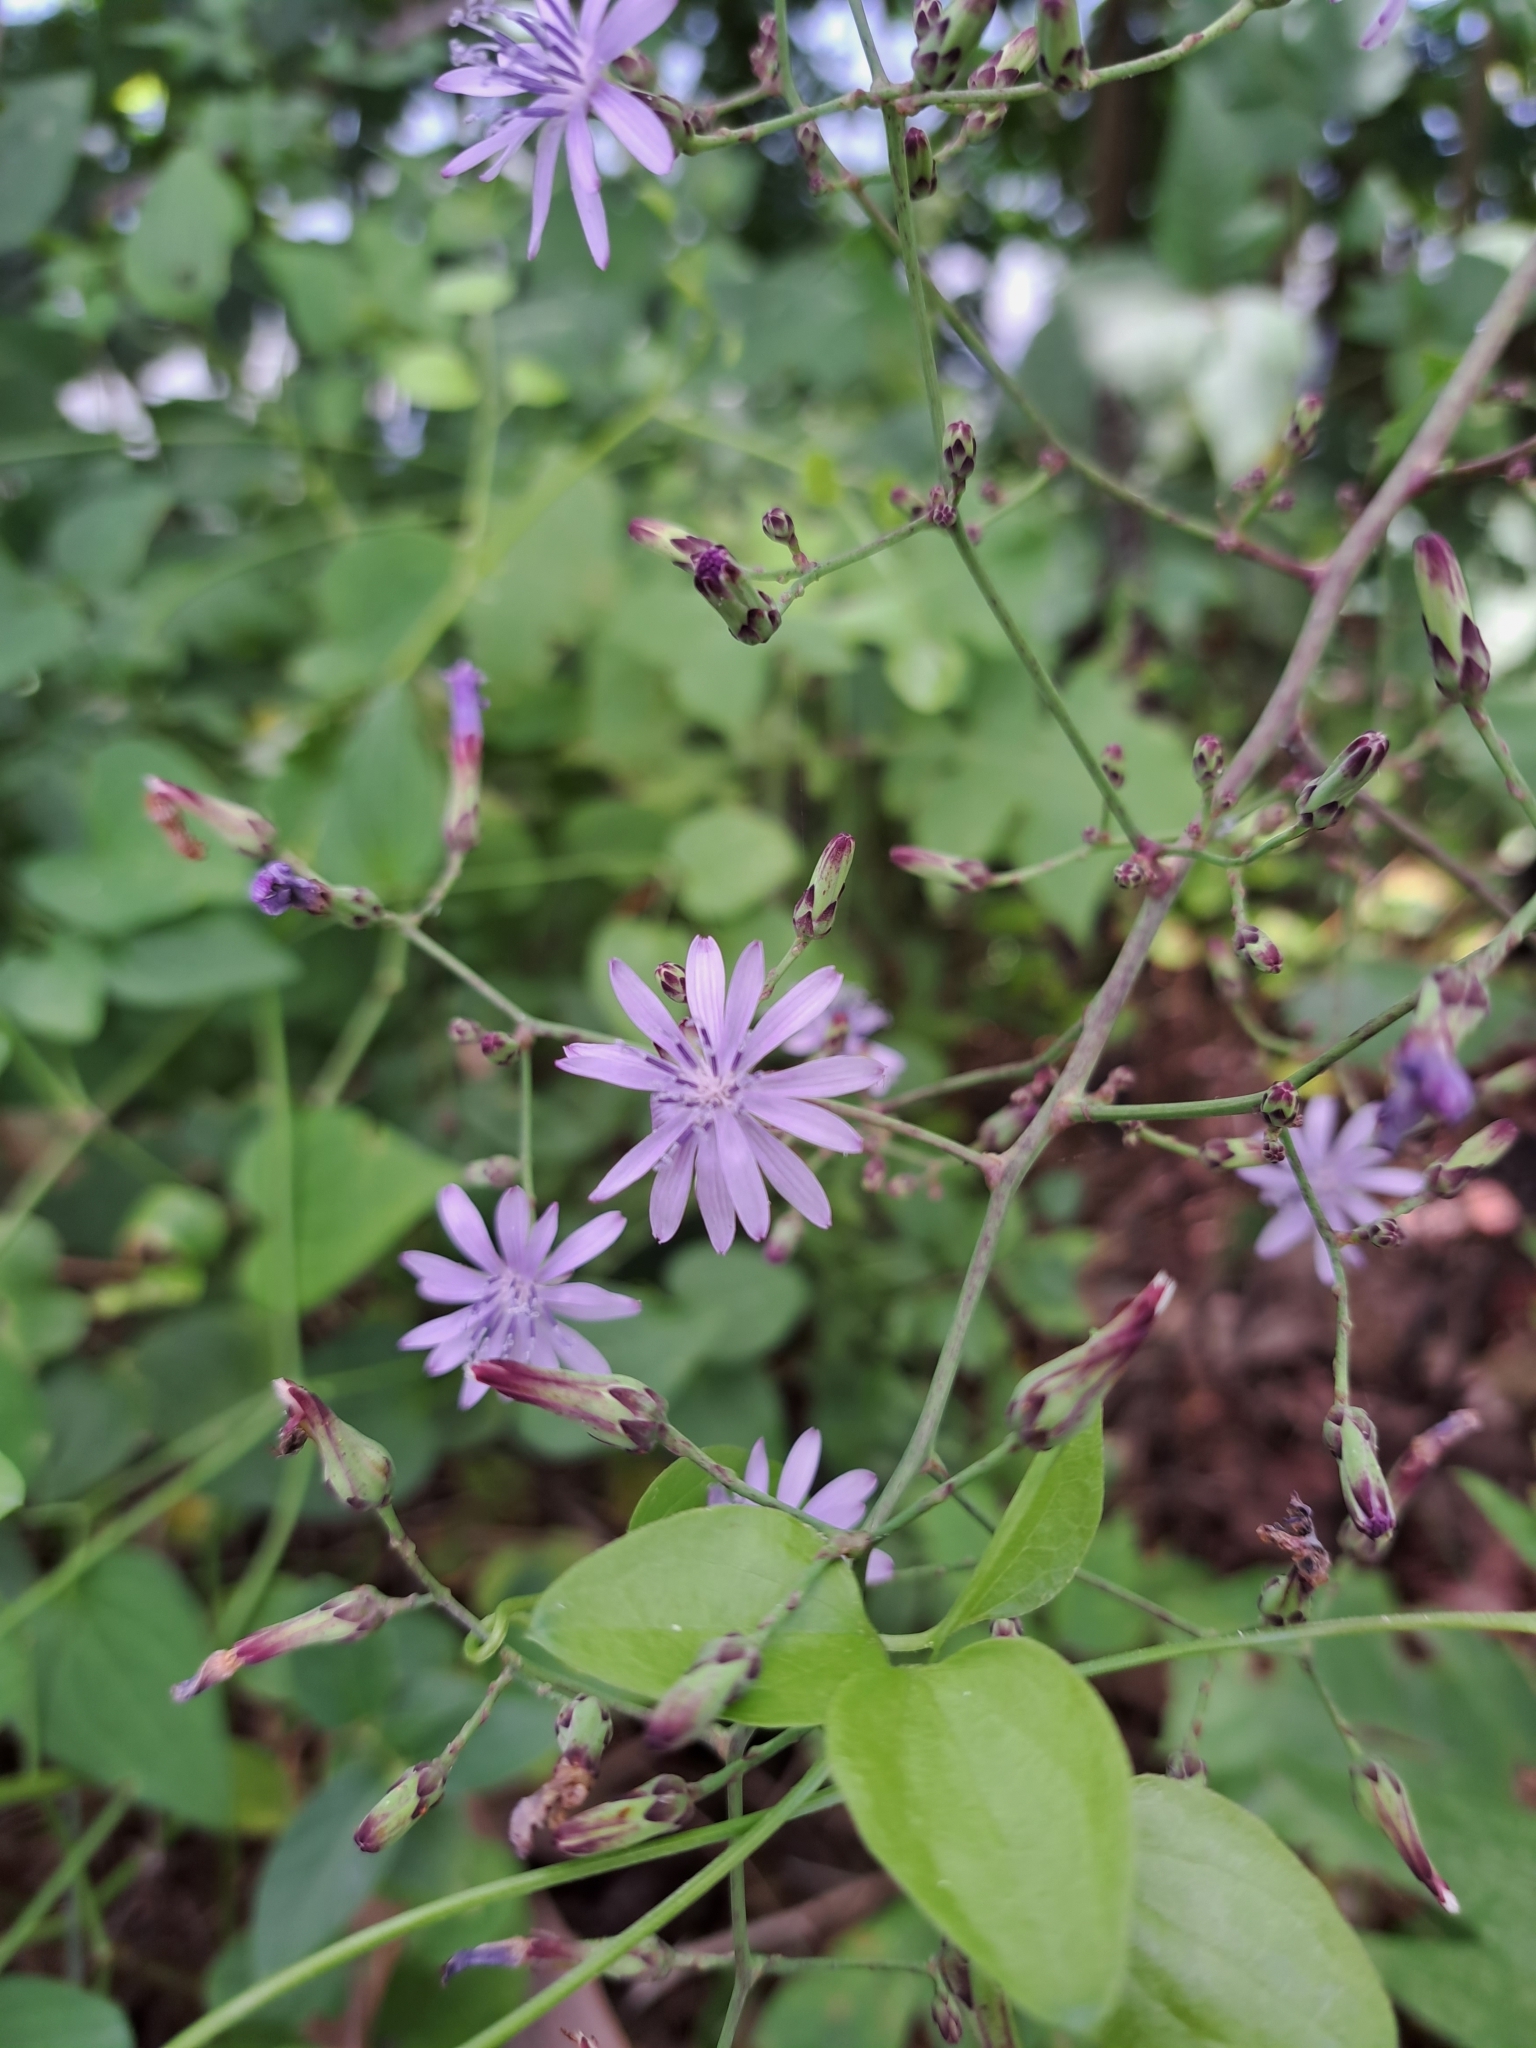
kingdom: Plantae
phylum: Tracheophyta
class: Magnoliopsida
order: Asterales
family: Asteraceae
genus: Lactuca
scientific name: Lactuca floridana
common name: Woodland lettuce
